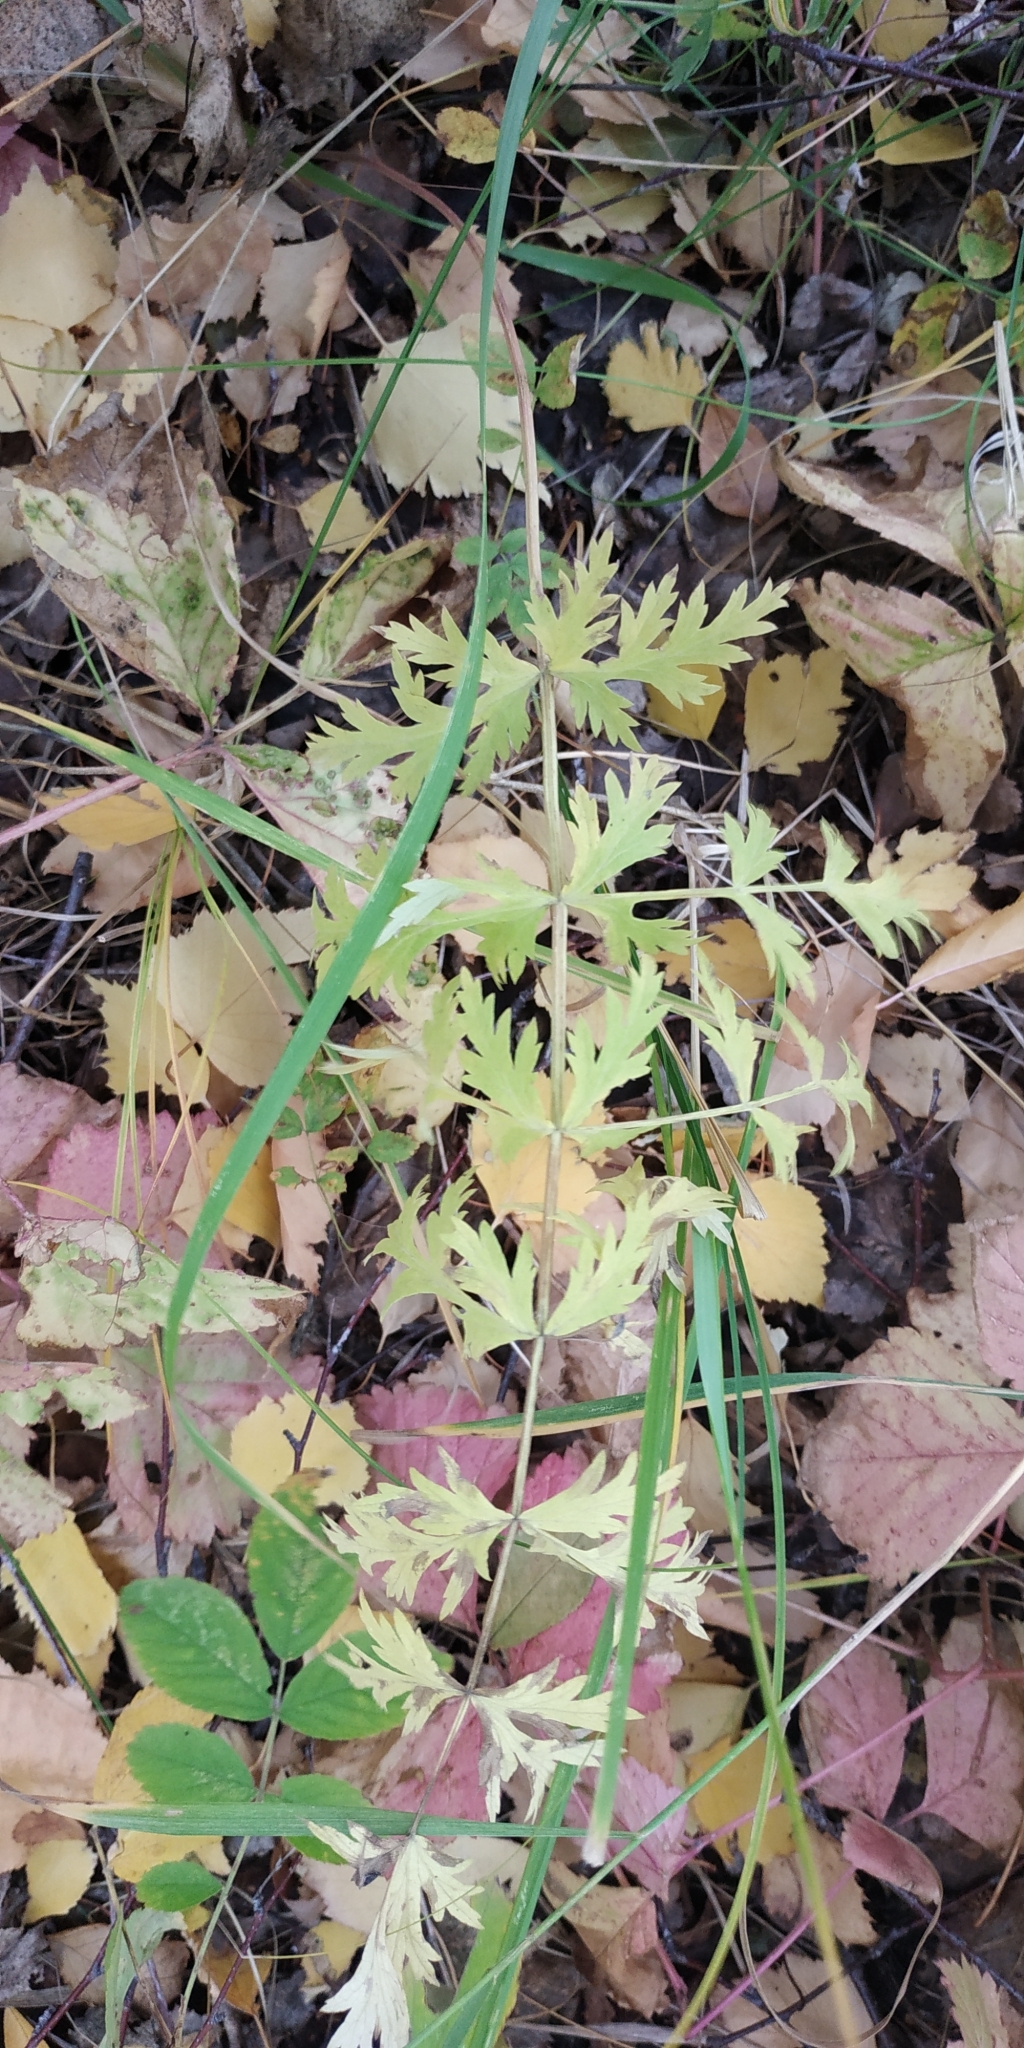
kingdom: Plantae
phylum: Tracheophyta
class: Magnoliopsida
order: Apiales
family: Apiaceae
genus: Seseli
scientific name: Seseli libanotis
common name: Mooncarrot
